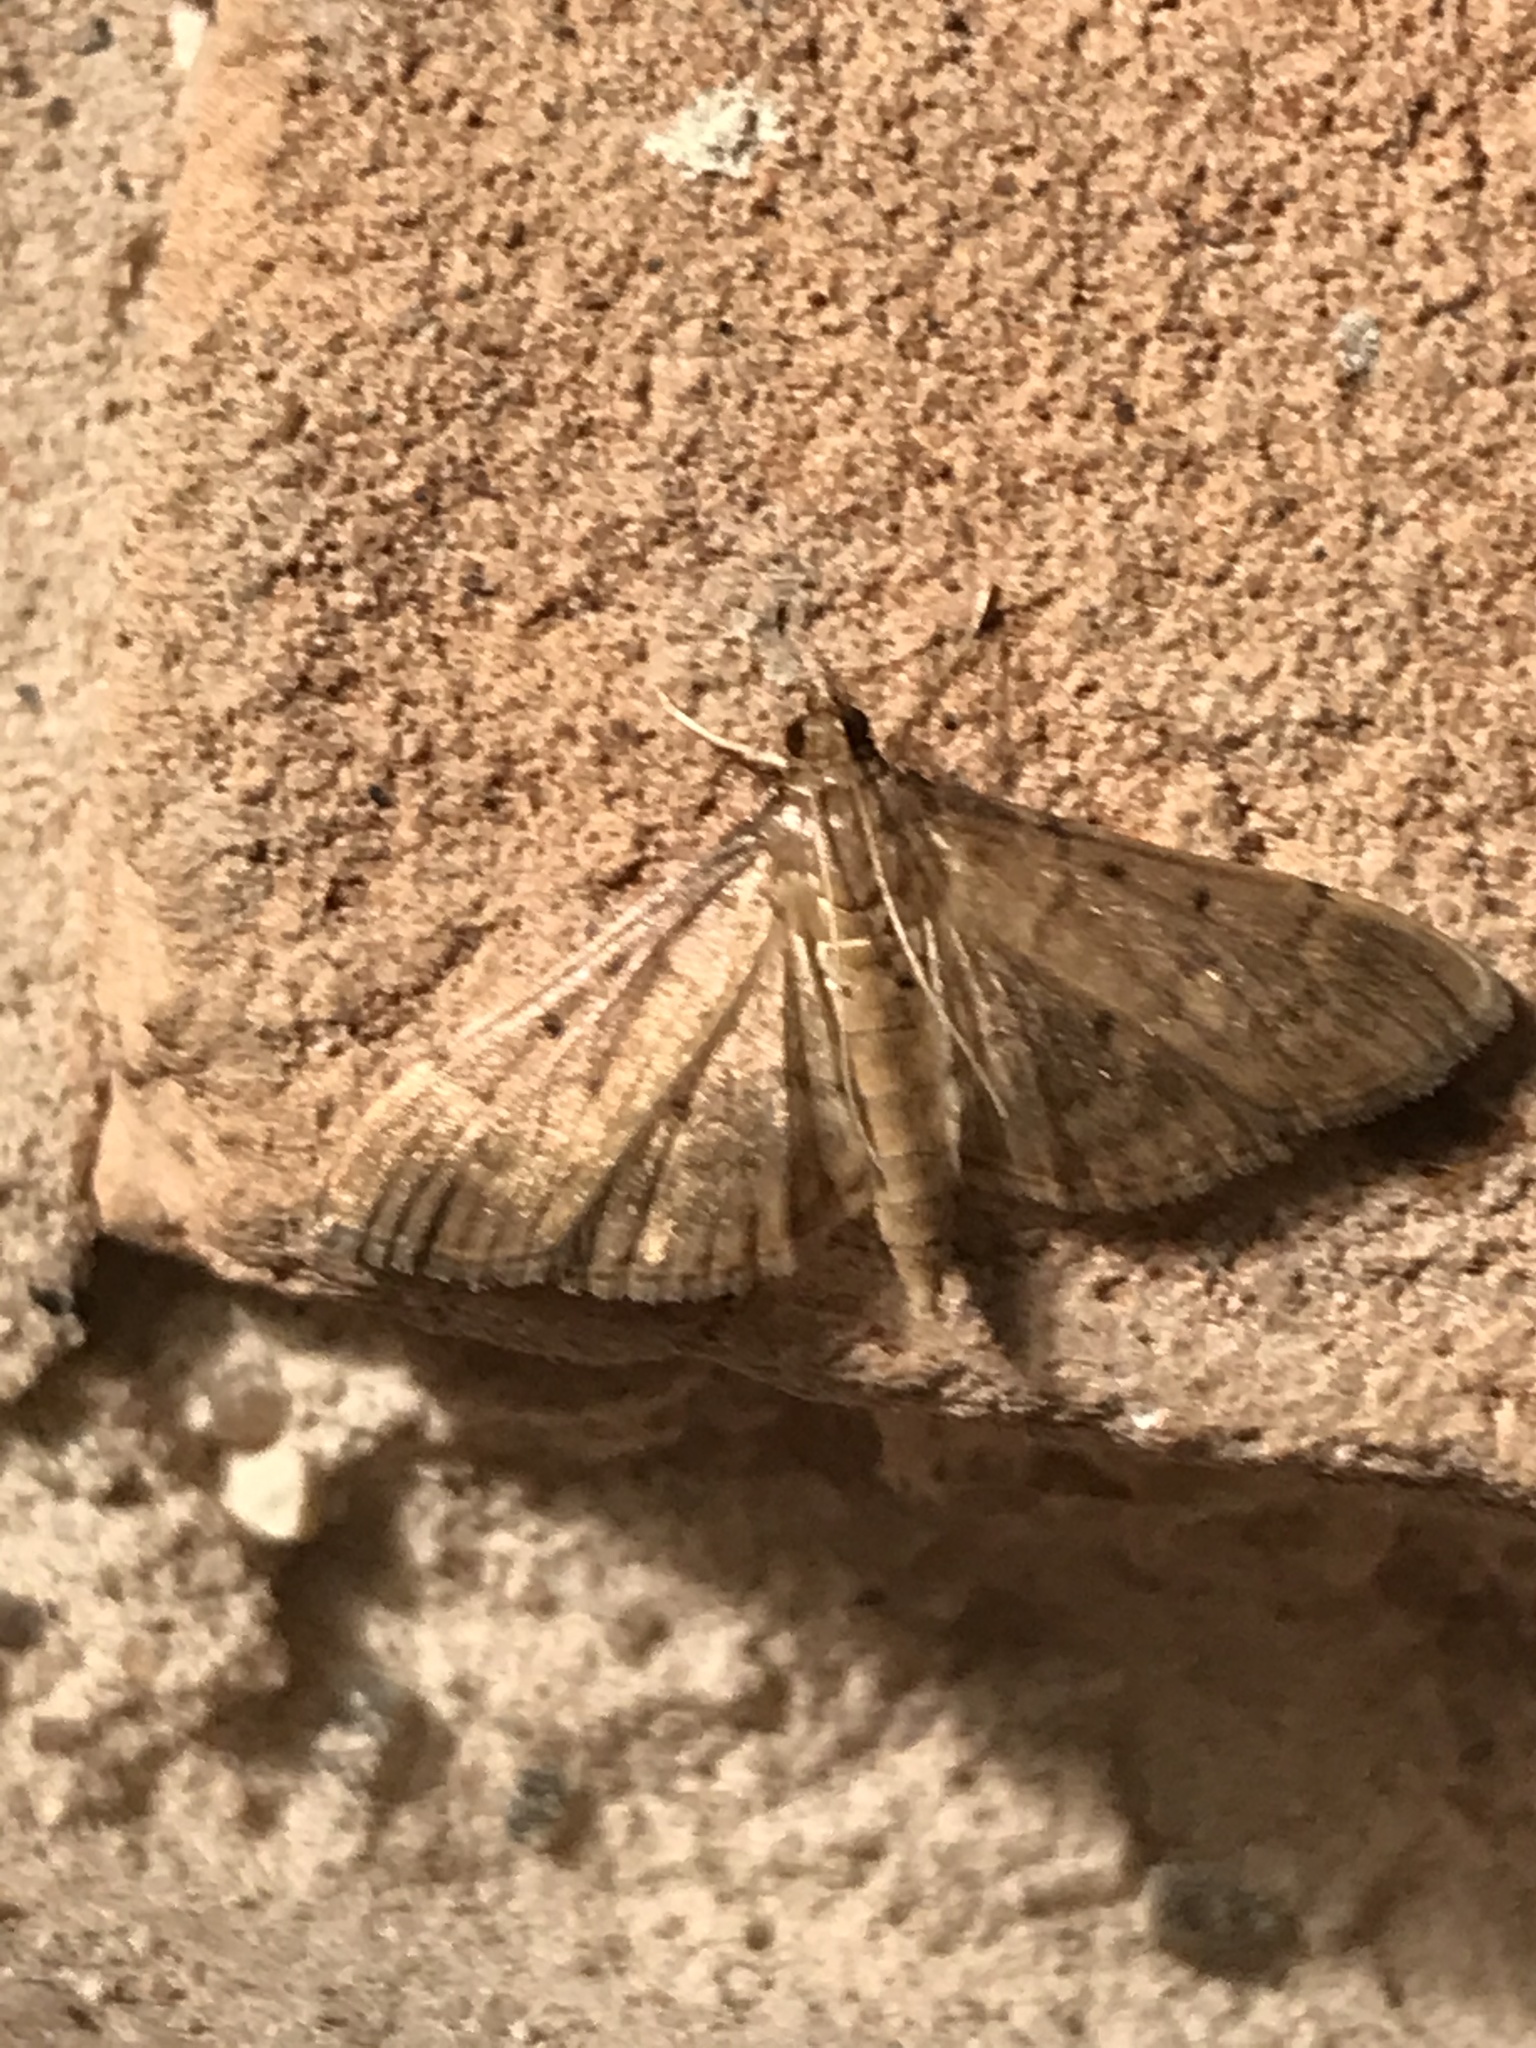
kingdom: Animalia
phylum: Arthropoda
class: Insecta
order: Lepidoptera
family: Crambidae
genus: Herpetogramma
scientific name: Herpetogramma bipunctalis
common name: Southern beet webworm
